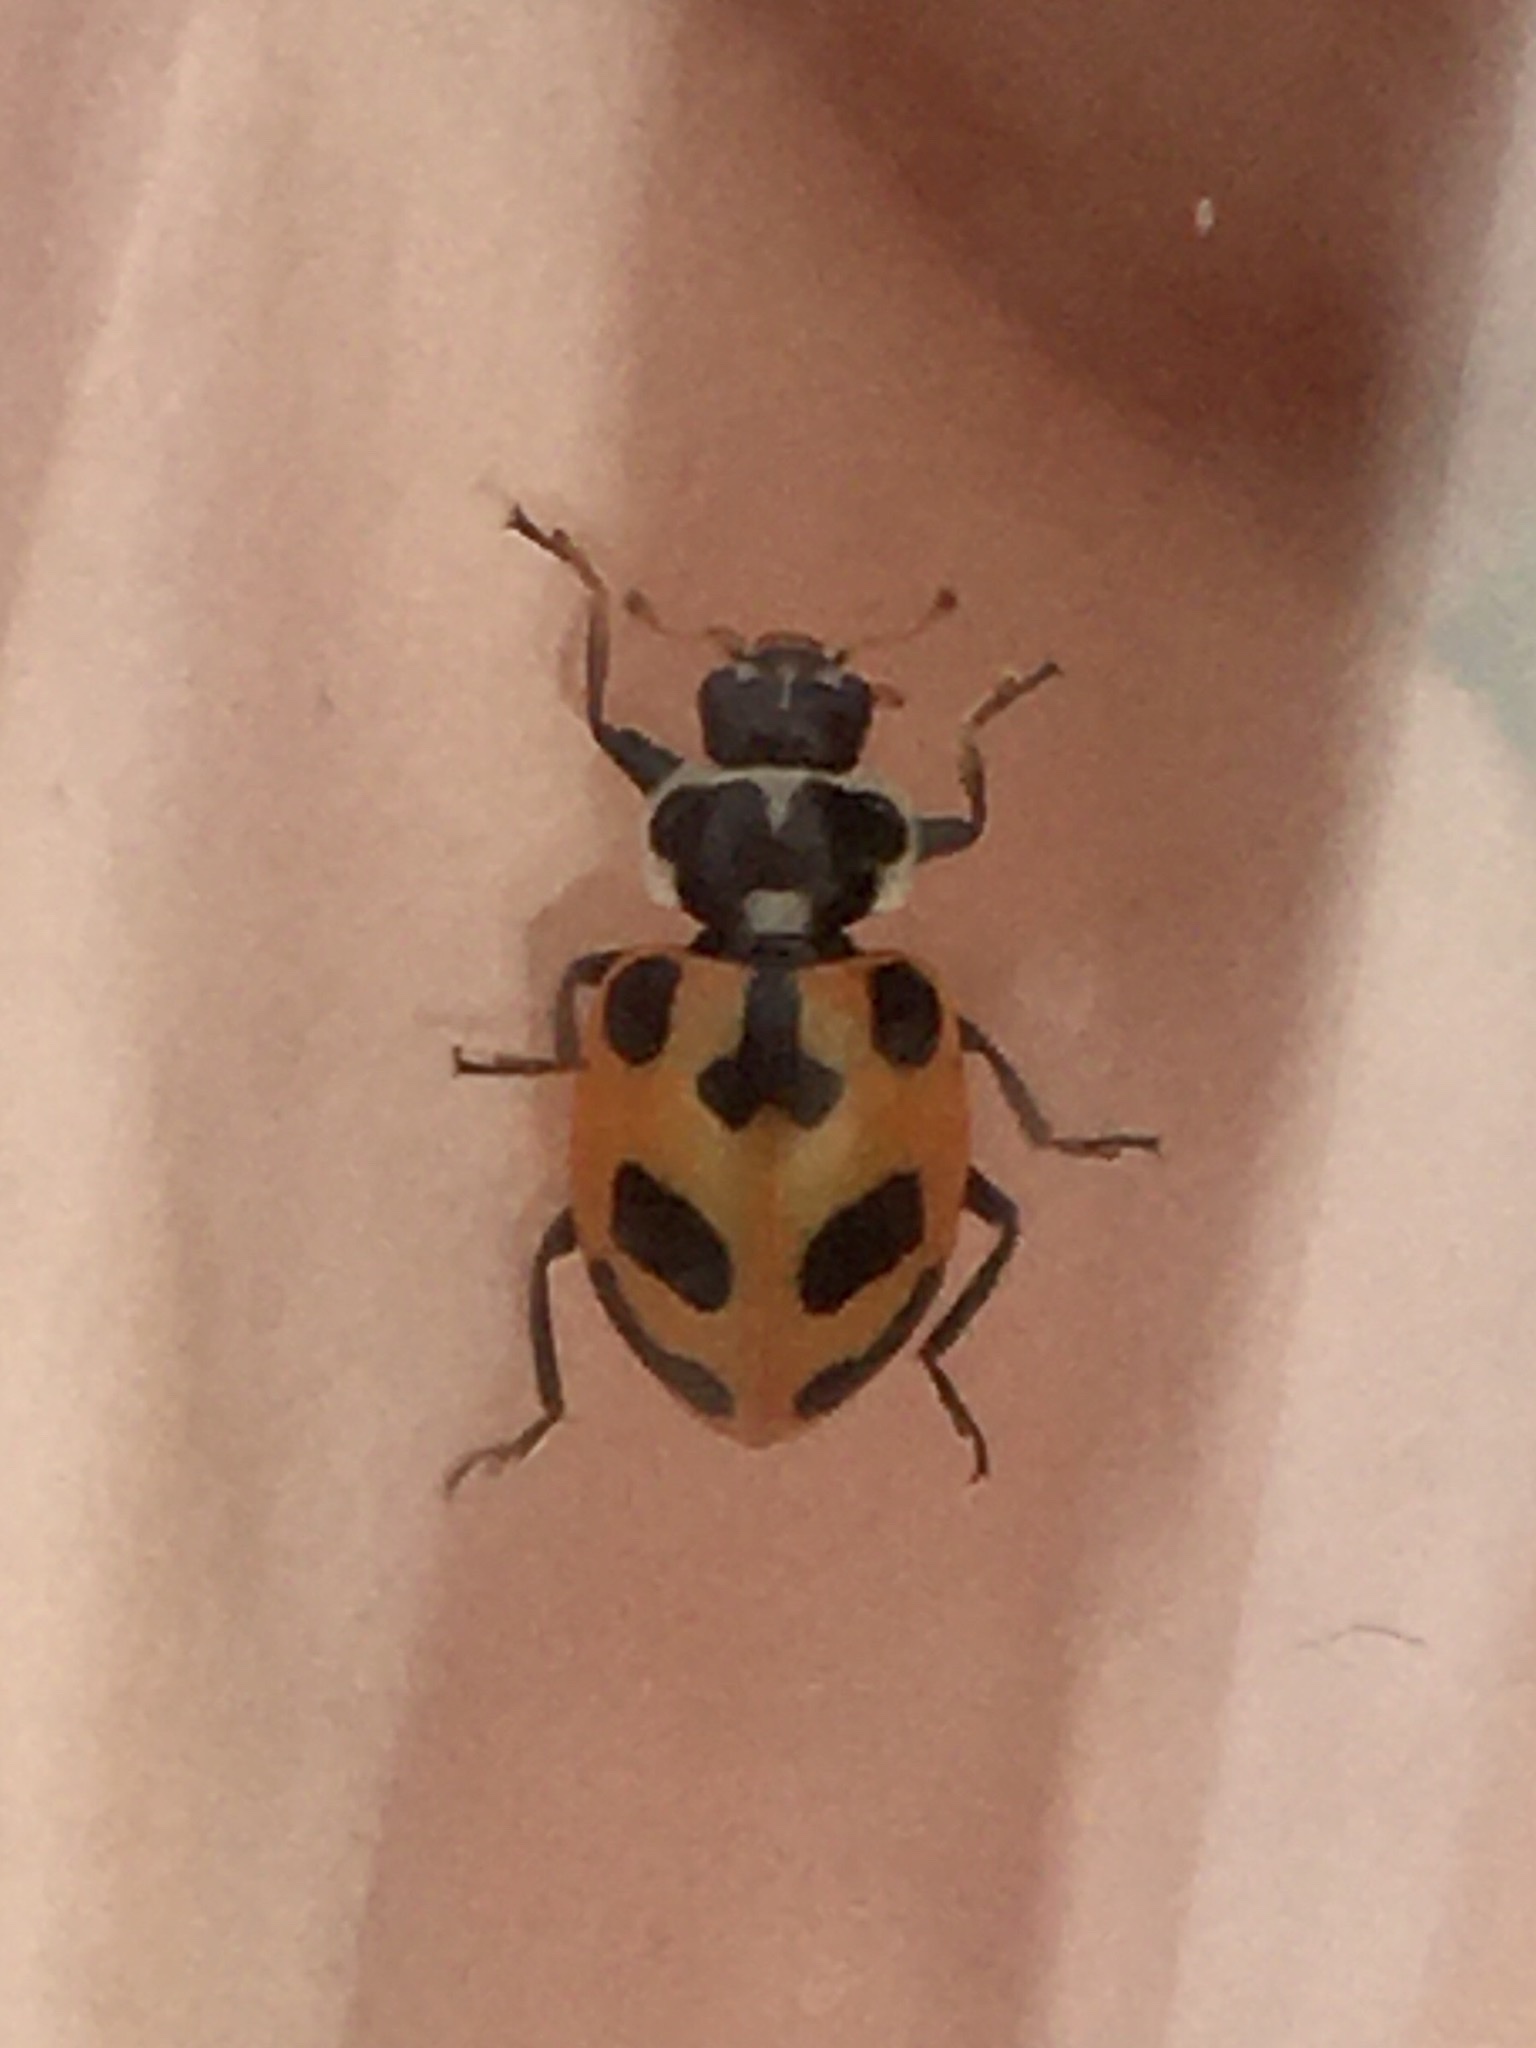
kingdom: Animalia
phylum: Arthropoda
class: Insecta
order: Coleoptera
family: Coccinellidae
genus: Hippodamia
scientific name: Hippodamia parenthesis
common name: Parenthesis lady beetle
